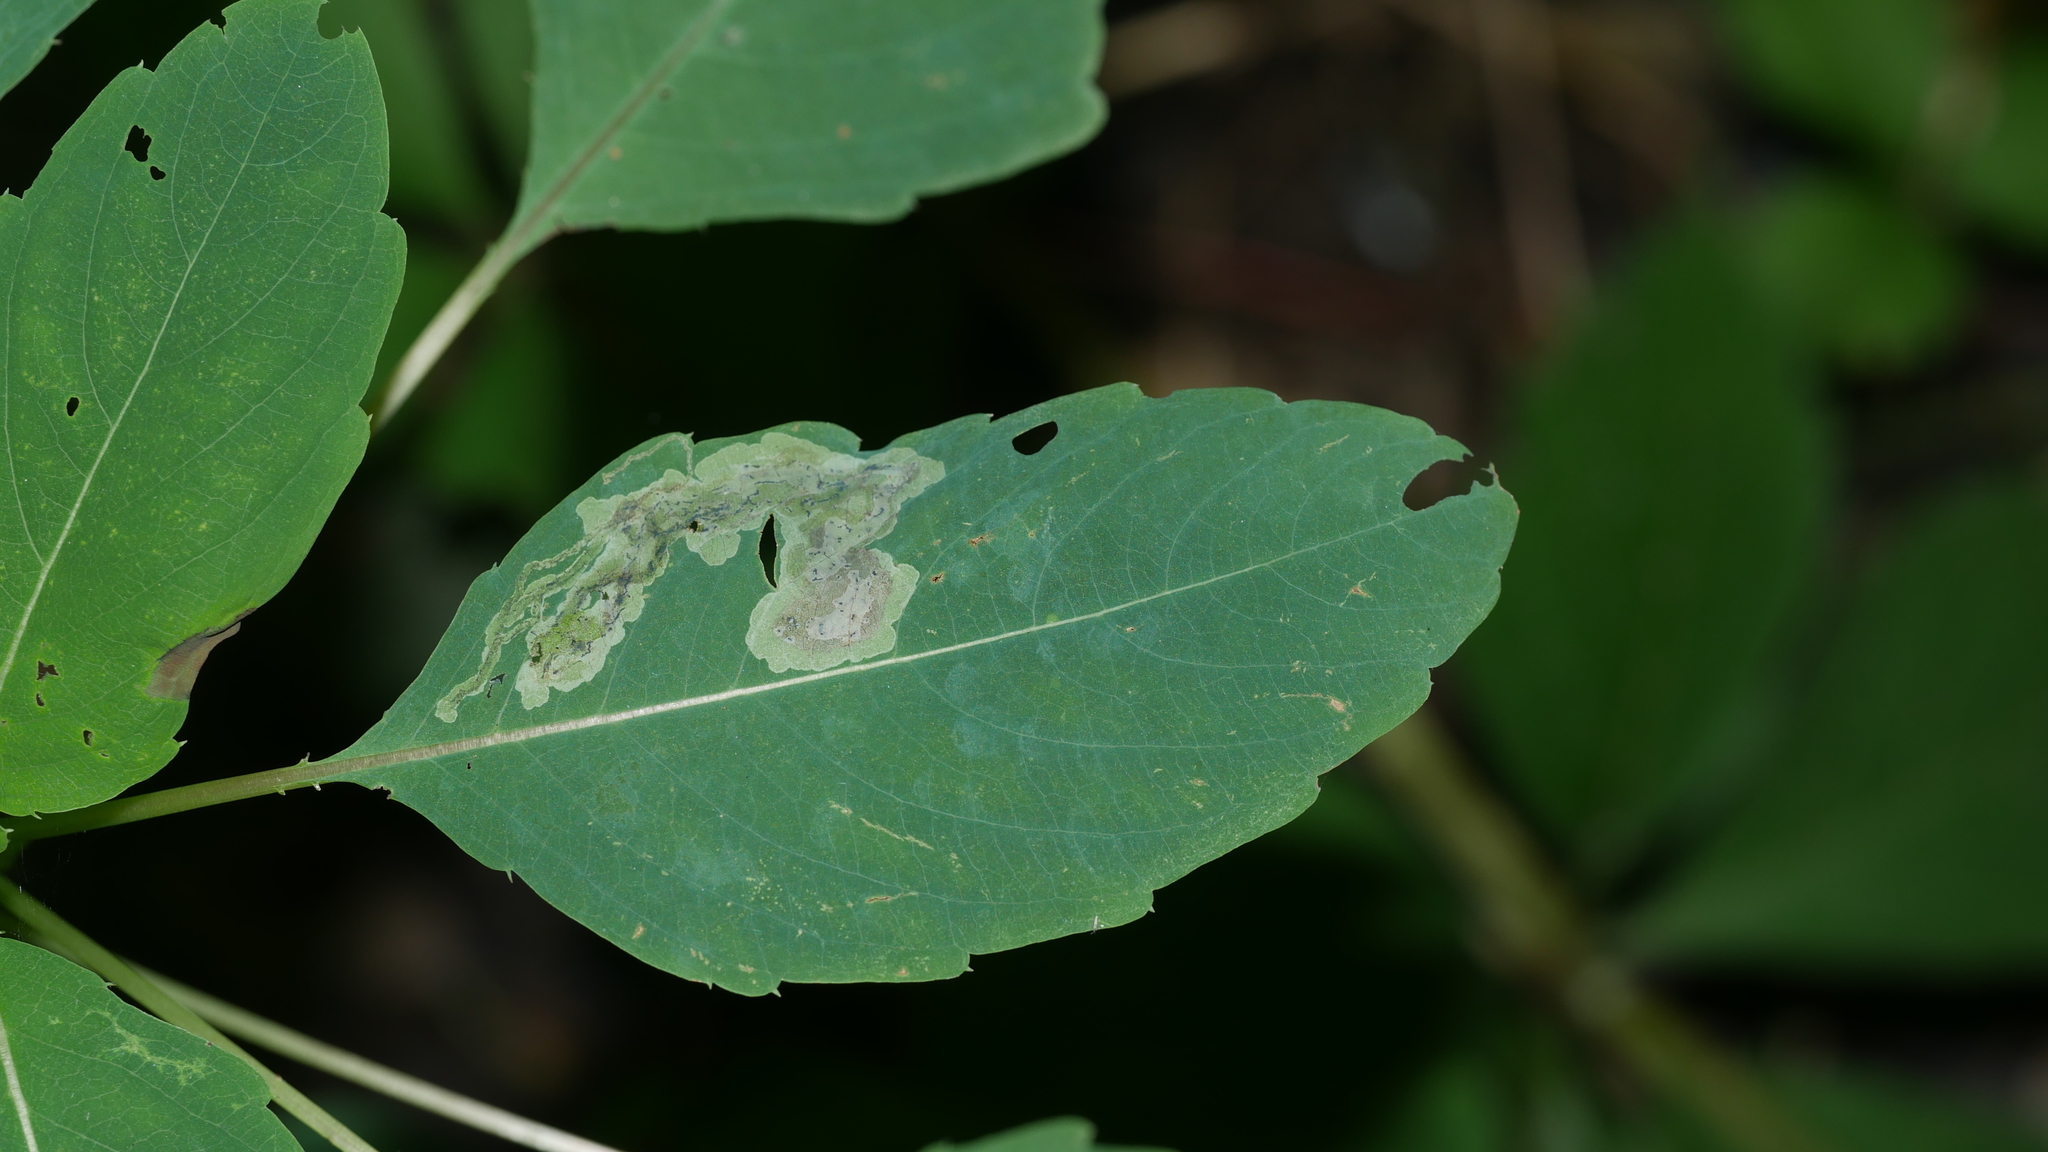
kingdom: Animalia
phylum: Arthropoda
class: Insecta
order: Diptera
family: Agromyzidae
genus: Phytoliriomyza
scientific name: Phytoliriomyza melampyga
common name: Jewelweed leaf-miner fly
